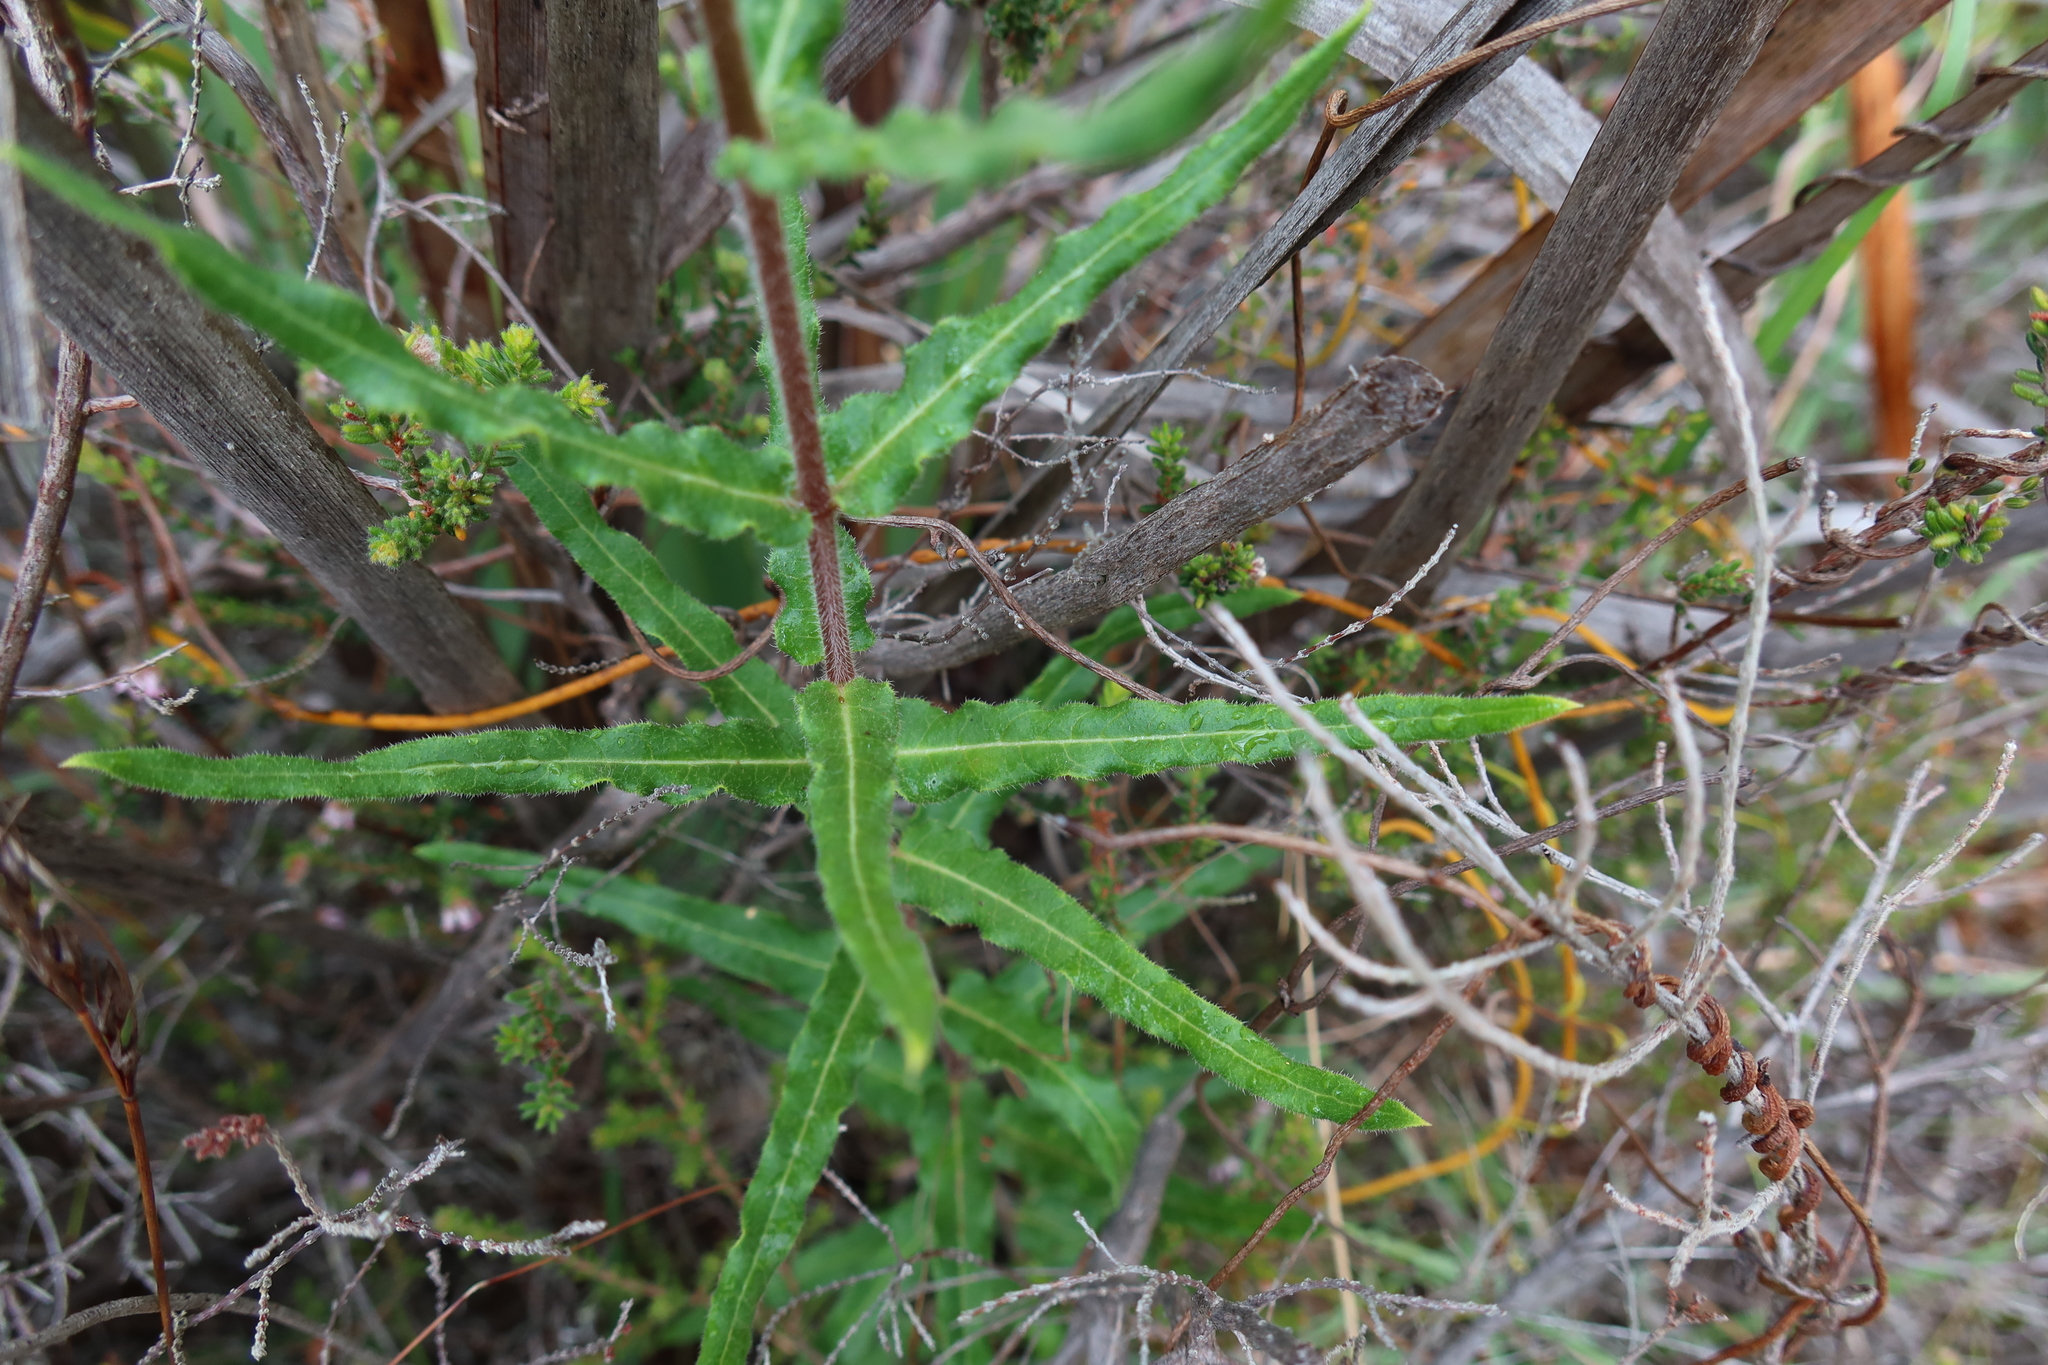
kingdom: Plantae
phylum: Tracheophyta
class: Magnoliopsida
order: Gentianales
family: Apocynaceae
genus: Asclepias
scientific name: Asclepias crispa
